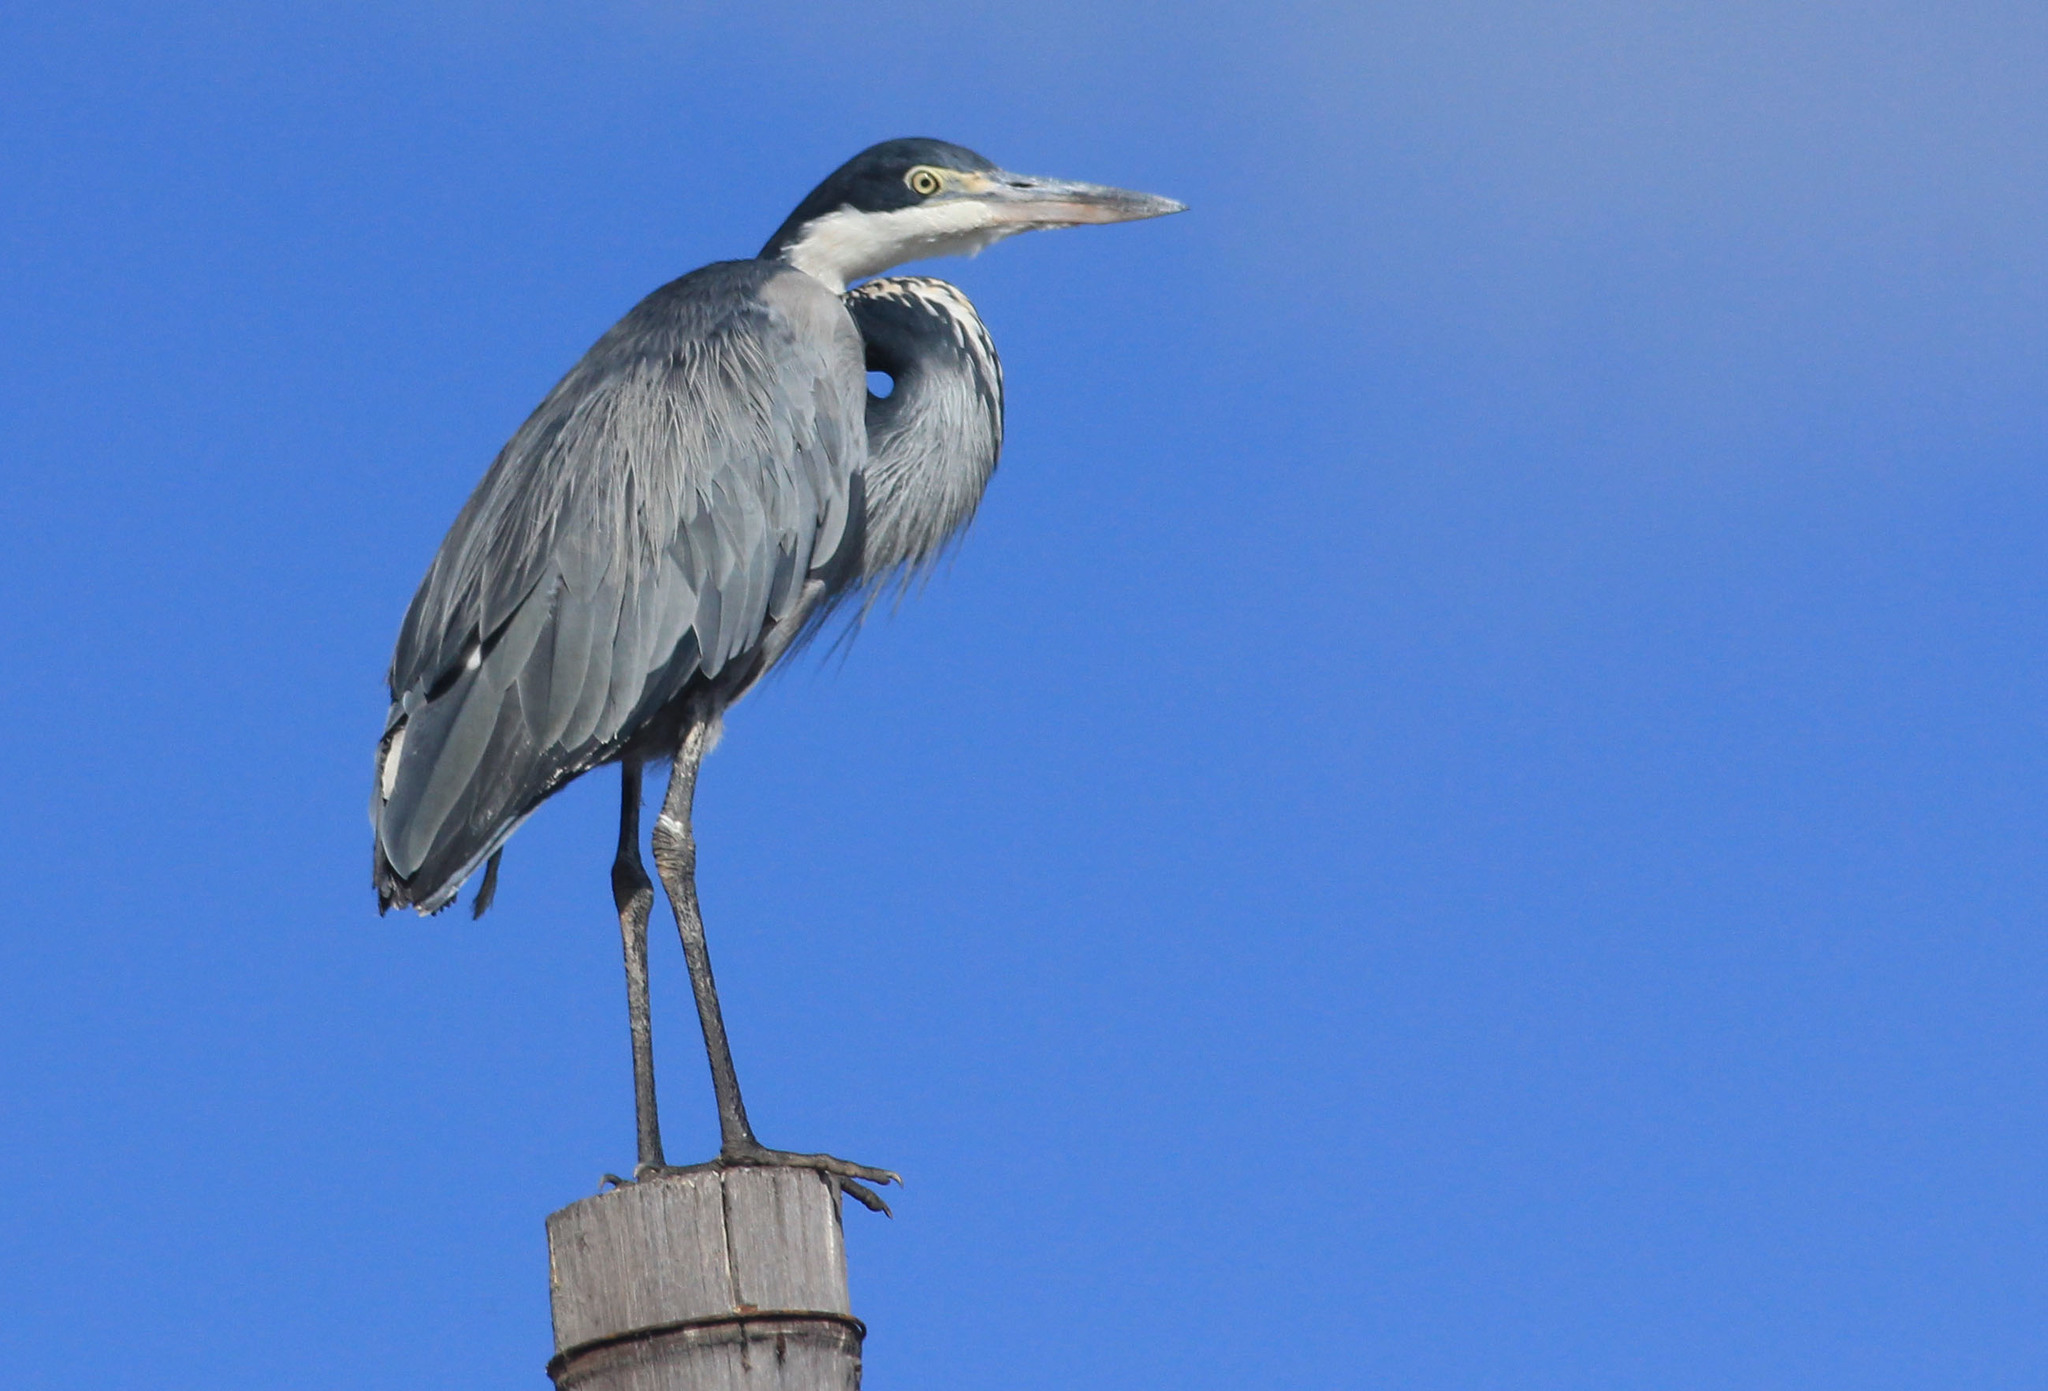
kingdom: Animalia
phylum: Chordata
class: Aves
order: Pelecaniformes
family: Ardeidae
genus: Ardea
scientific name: Ardea melanocephala
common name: Black-headed heron
